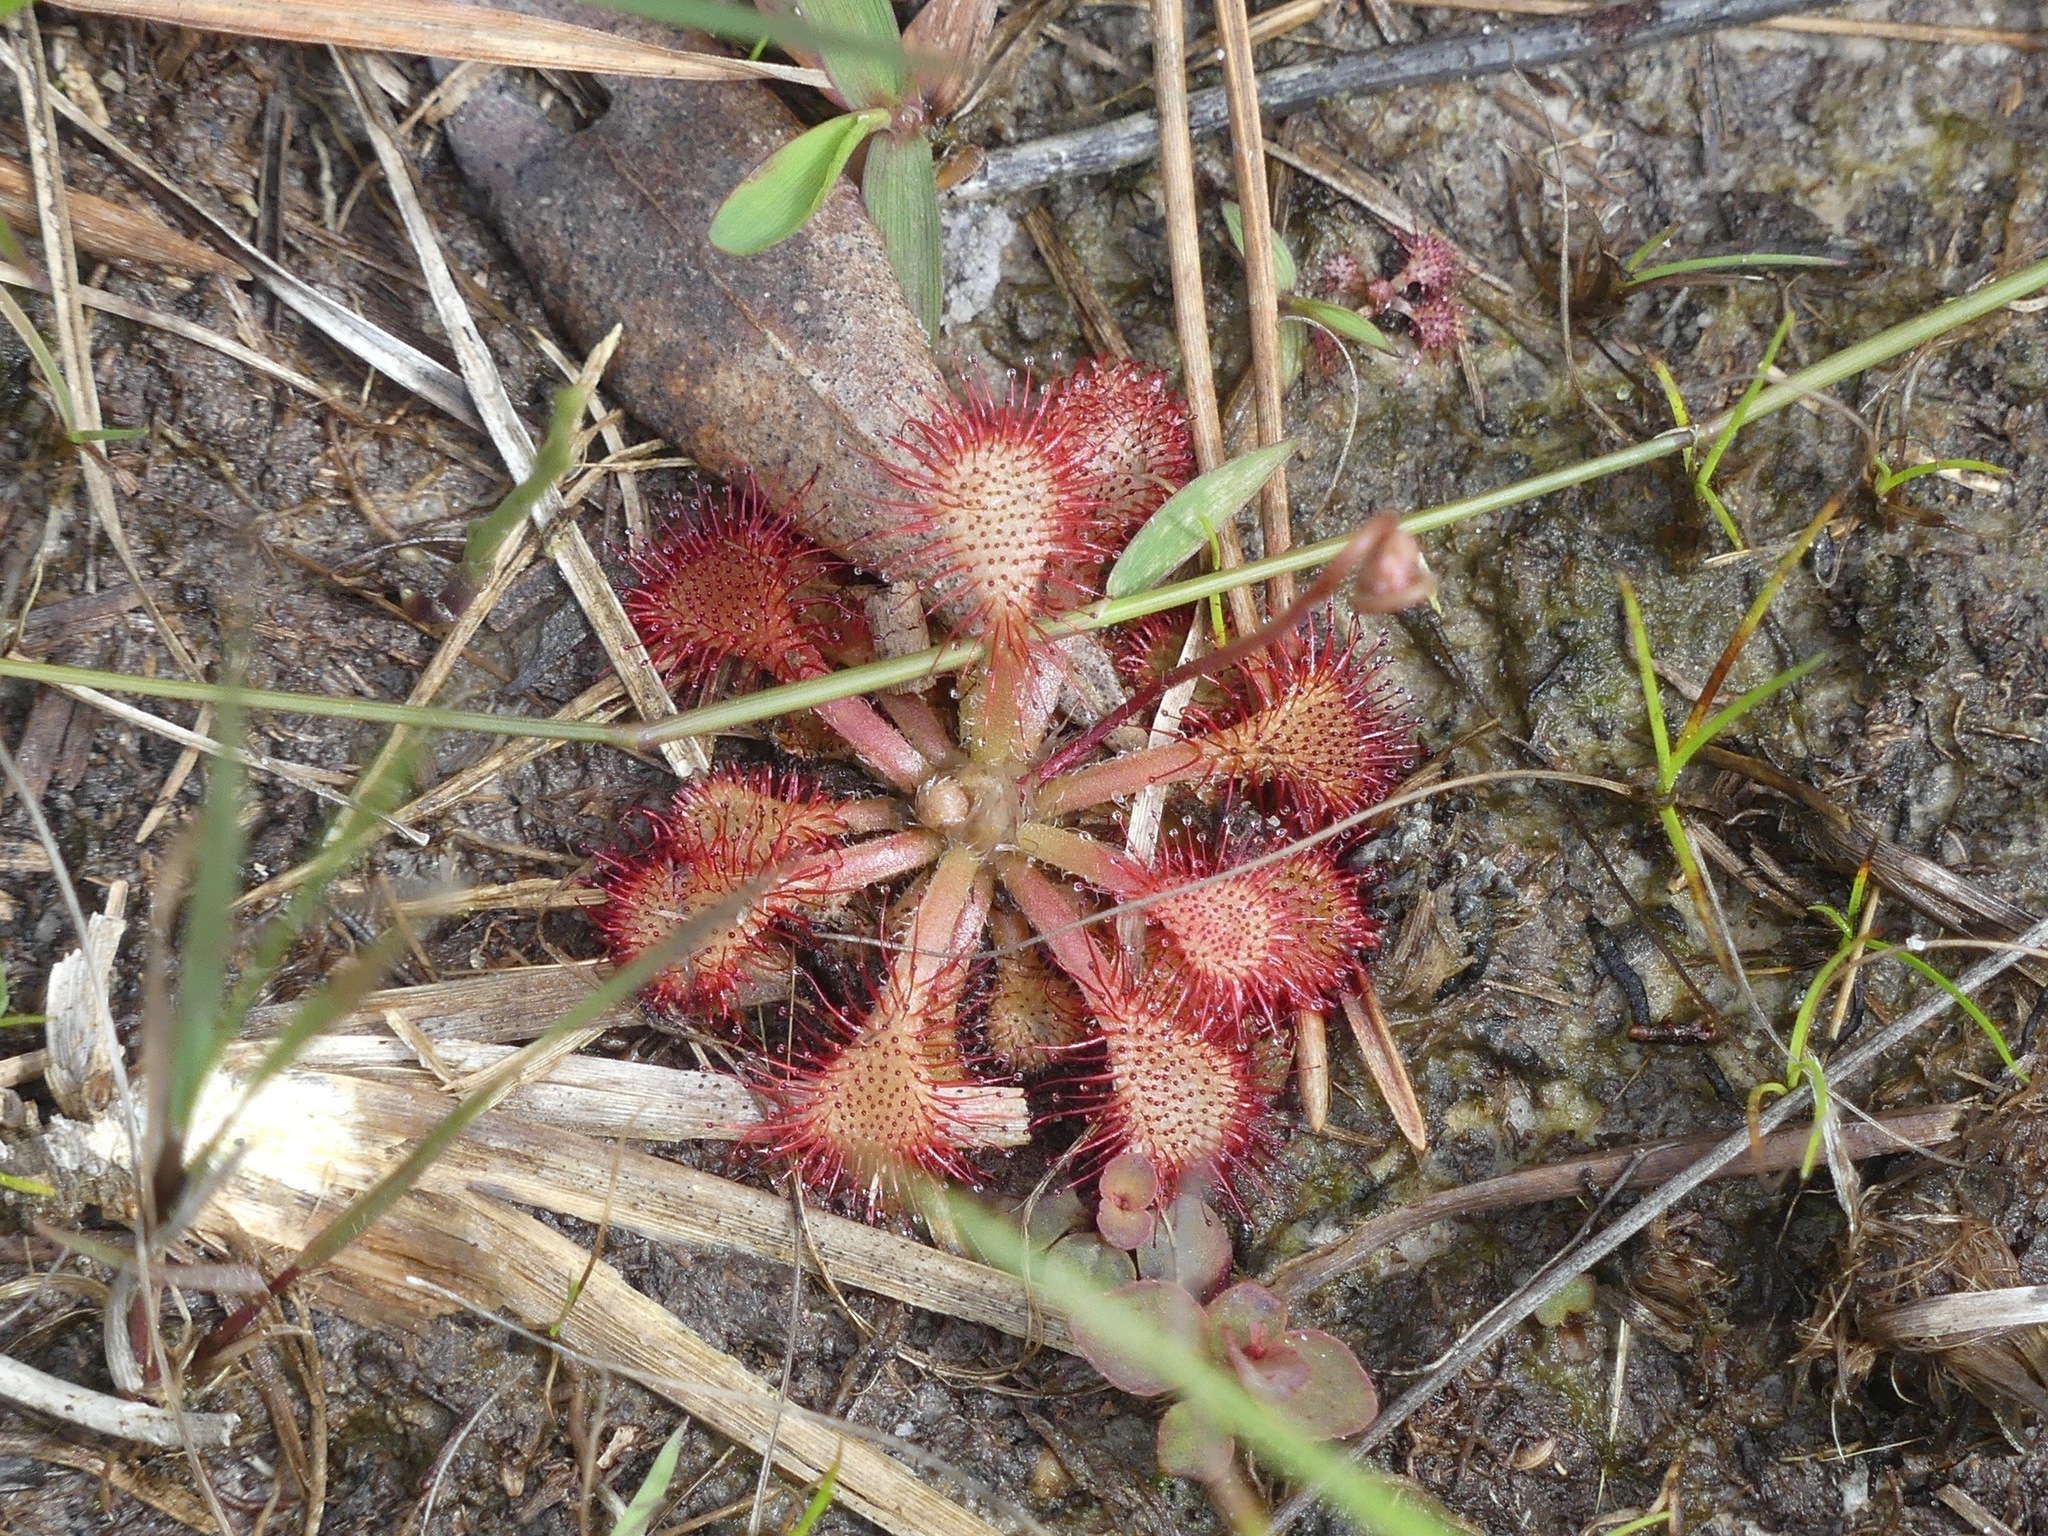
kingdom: Plantae
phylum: Tracheophyta
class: Magnoliopsida
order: Caryophyllales
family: Droseraceae
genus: Drosera
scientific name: Drosera capillaris
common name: Pink sundew
